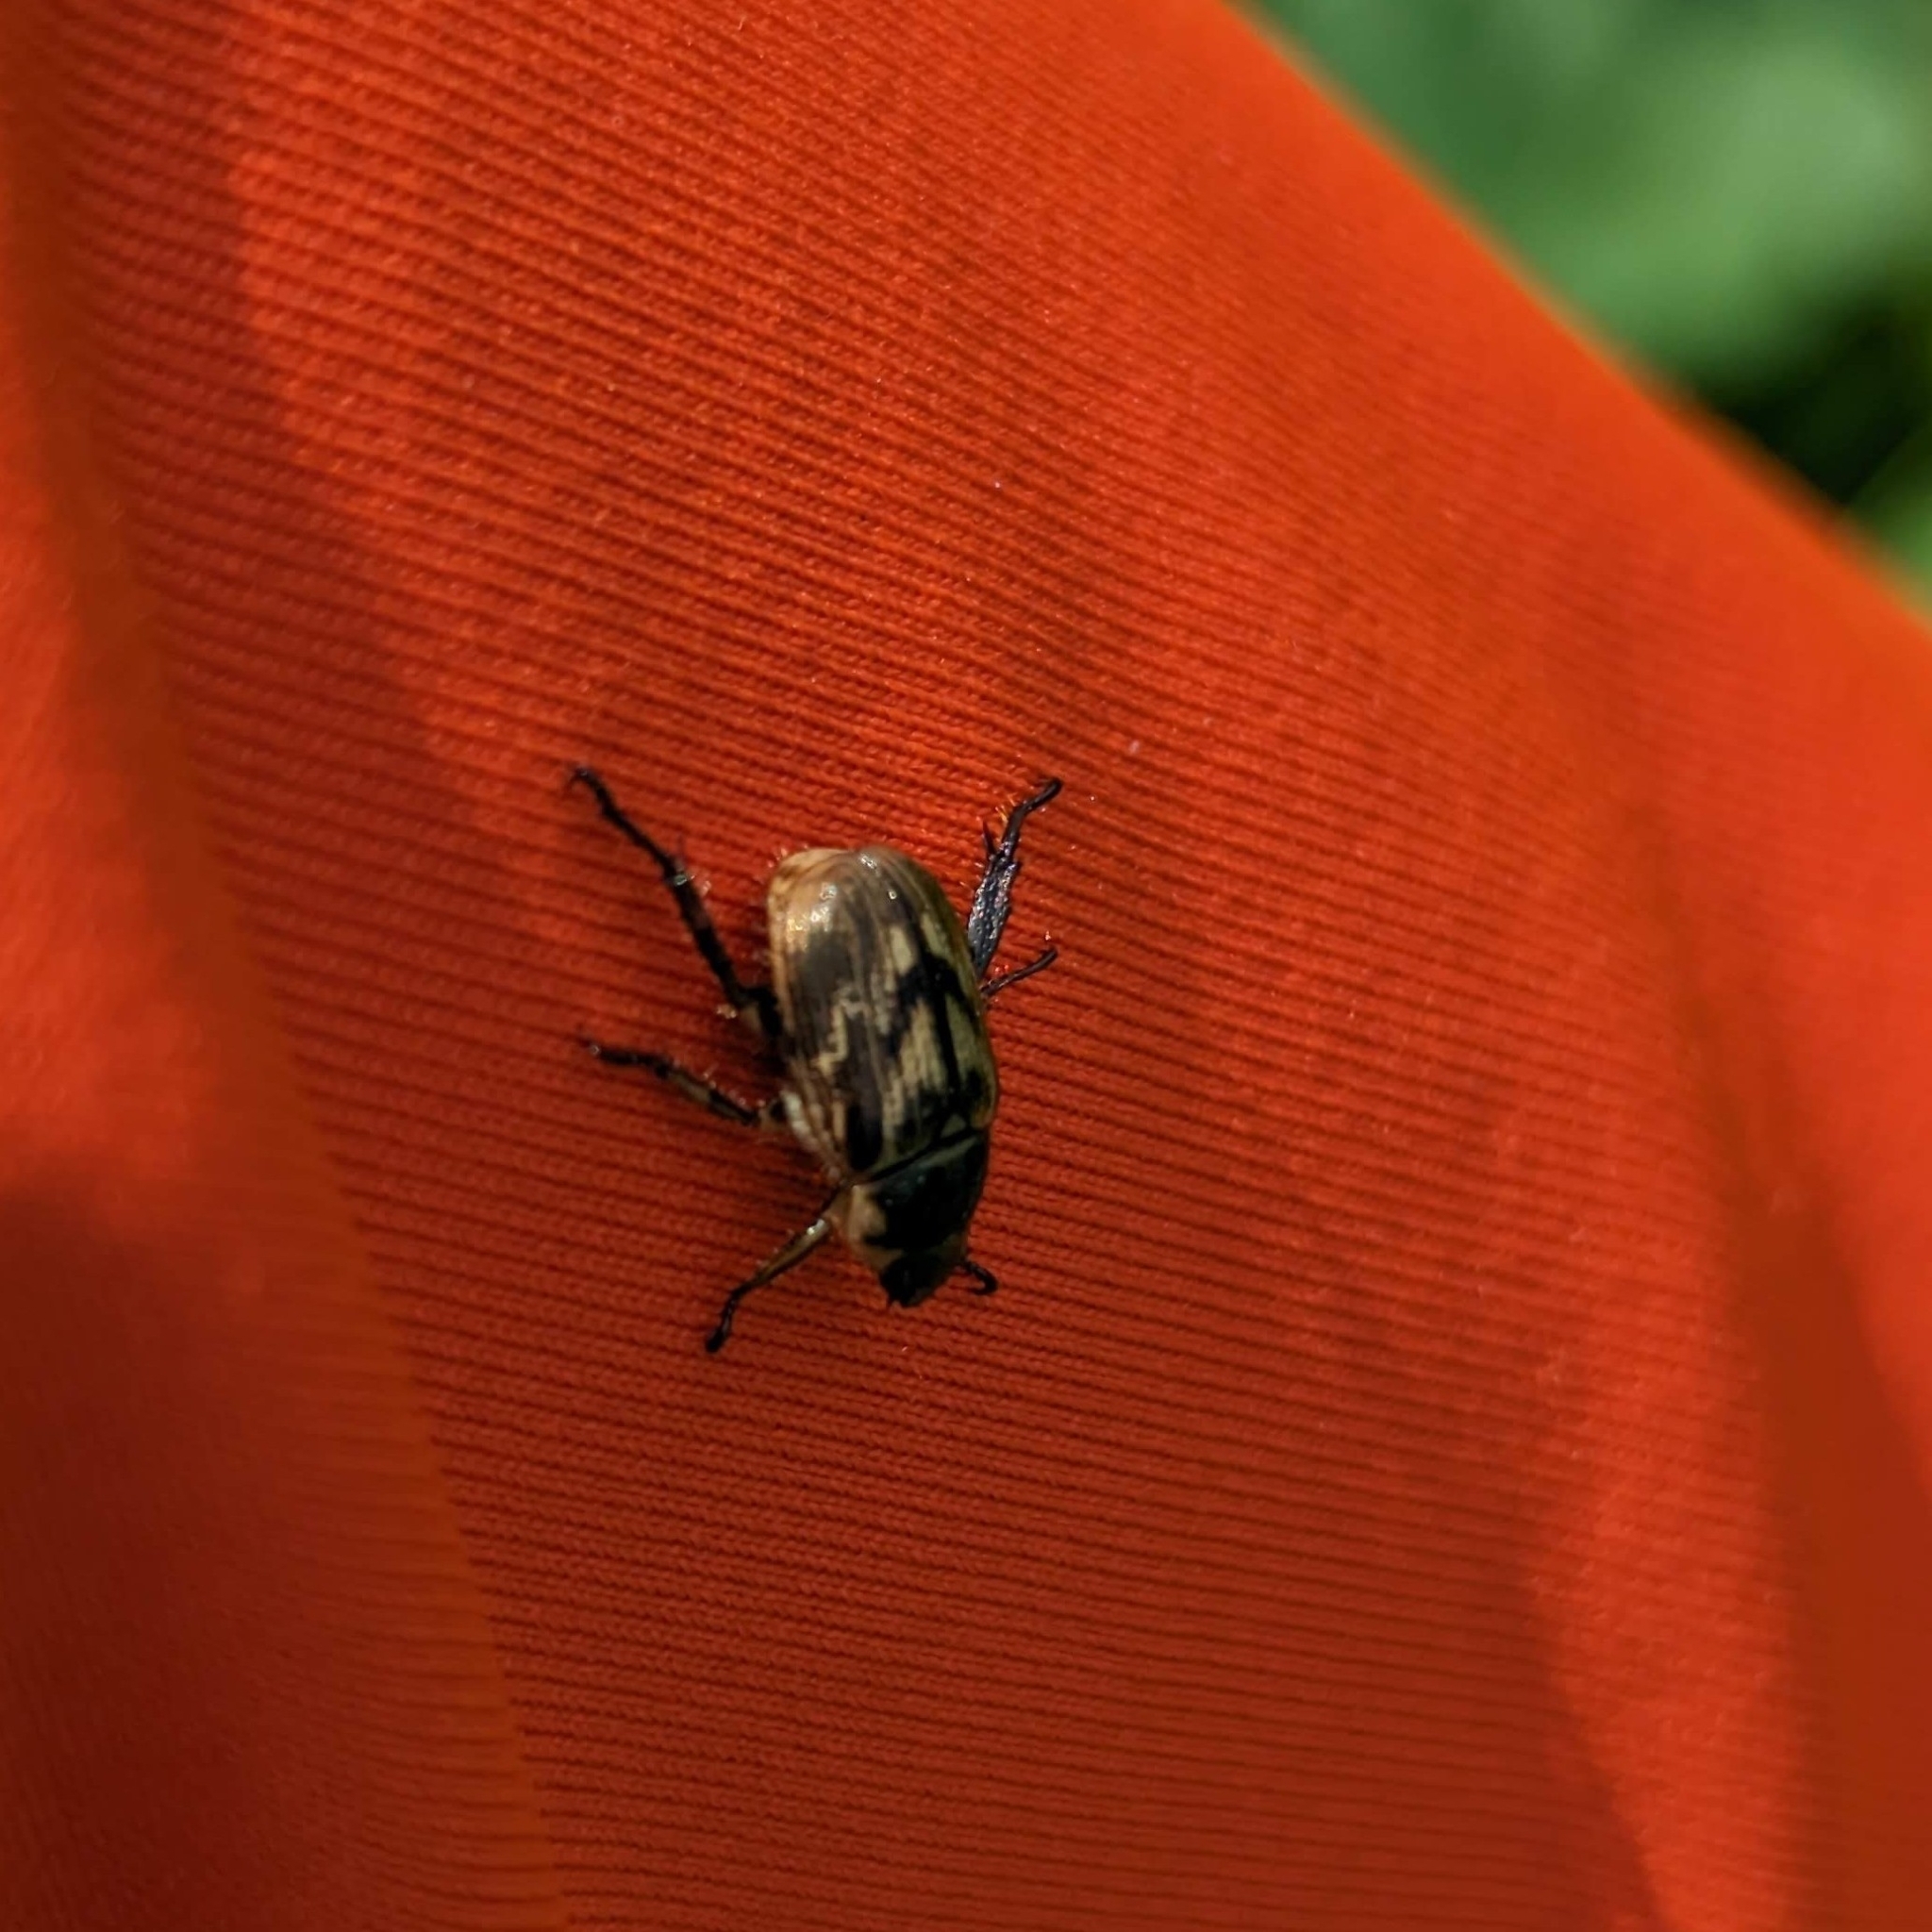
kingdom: Animalia
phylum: Arthropoda
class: Insecta
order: Coleoptera
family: Scarabaeidae
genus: Exomala
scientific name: Exomala orientalis
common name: Oriental beetle
